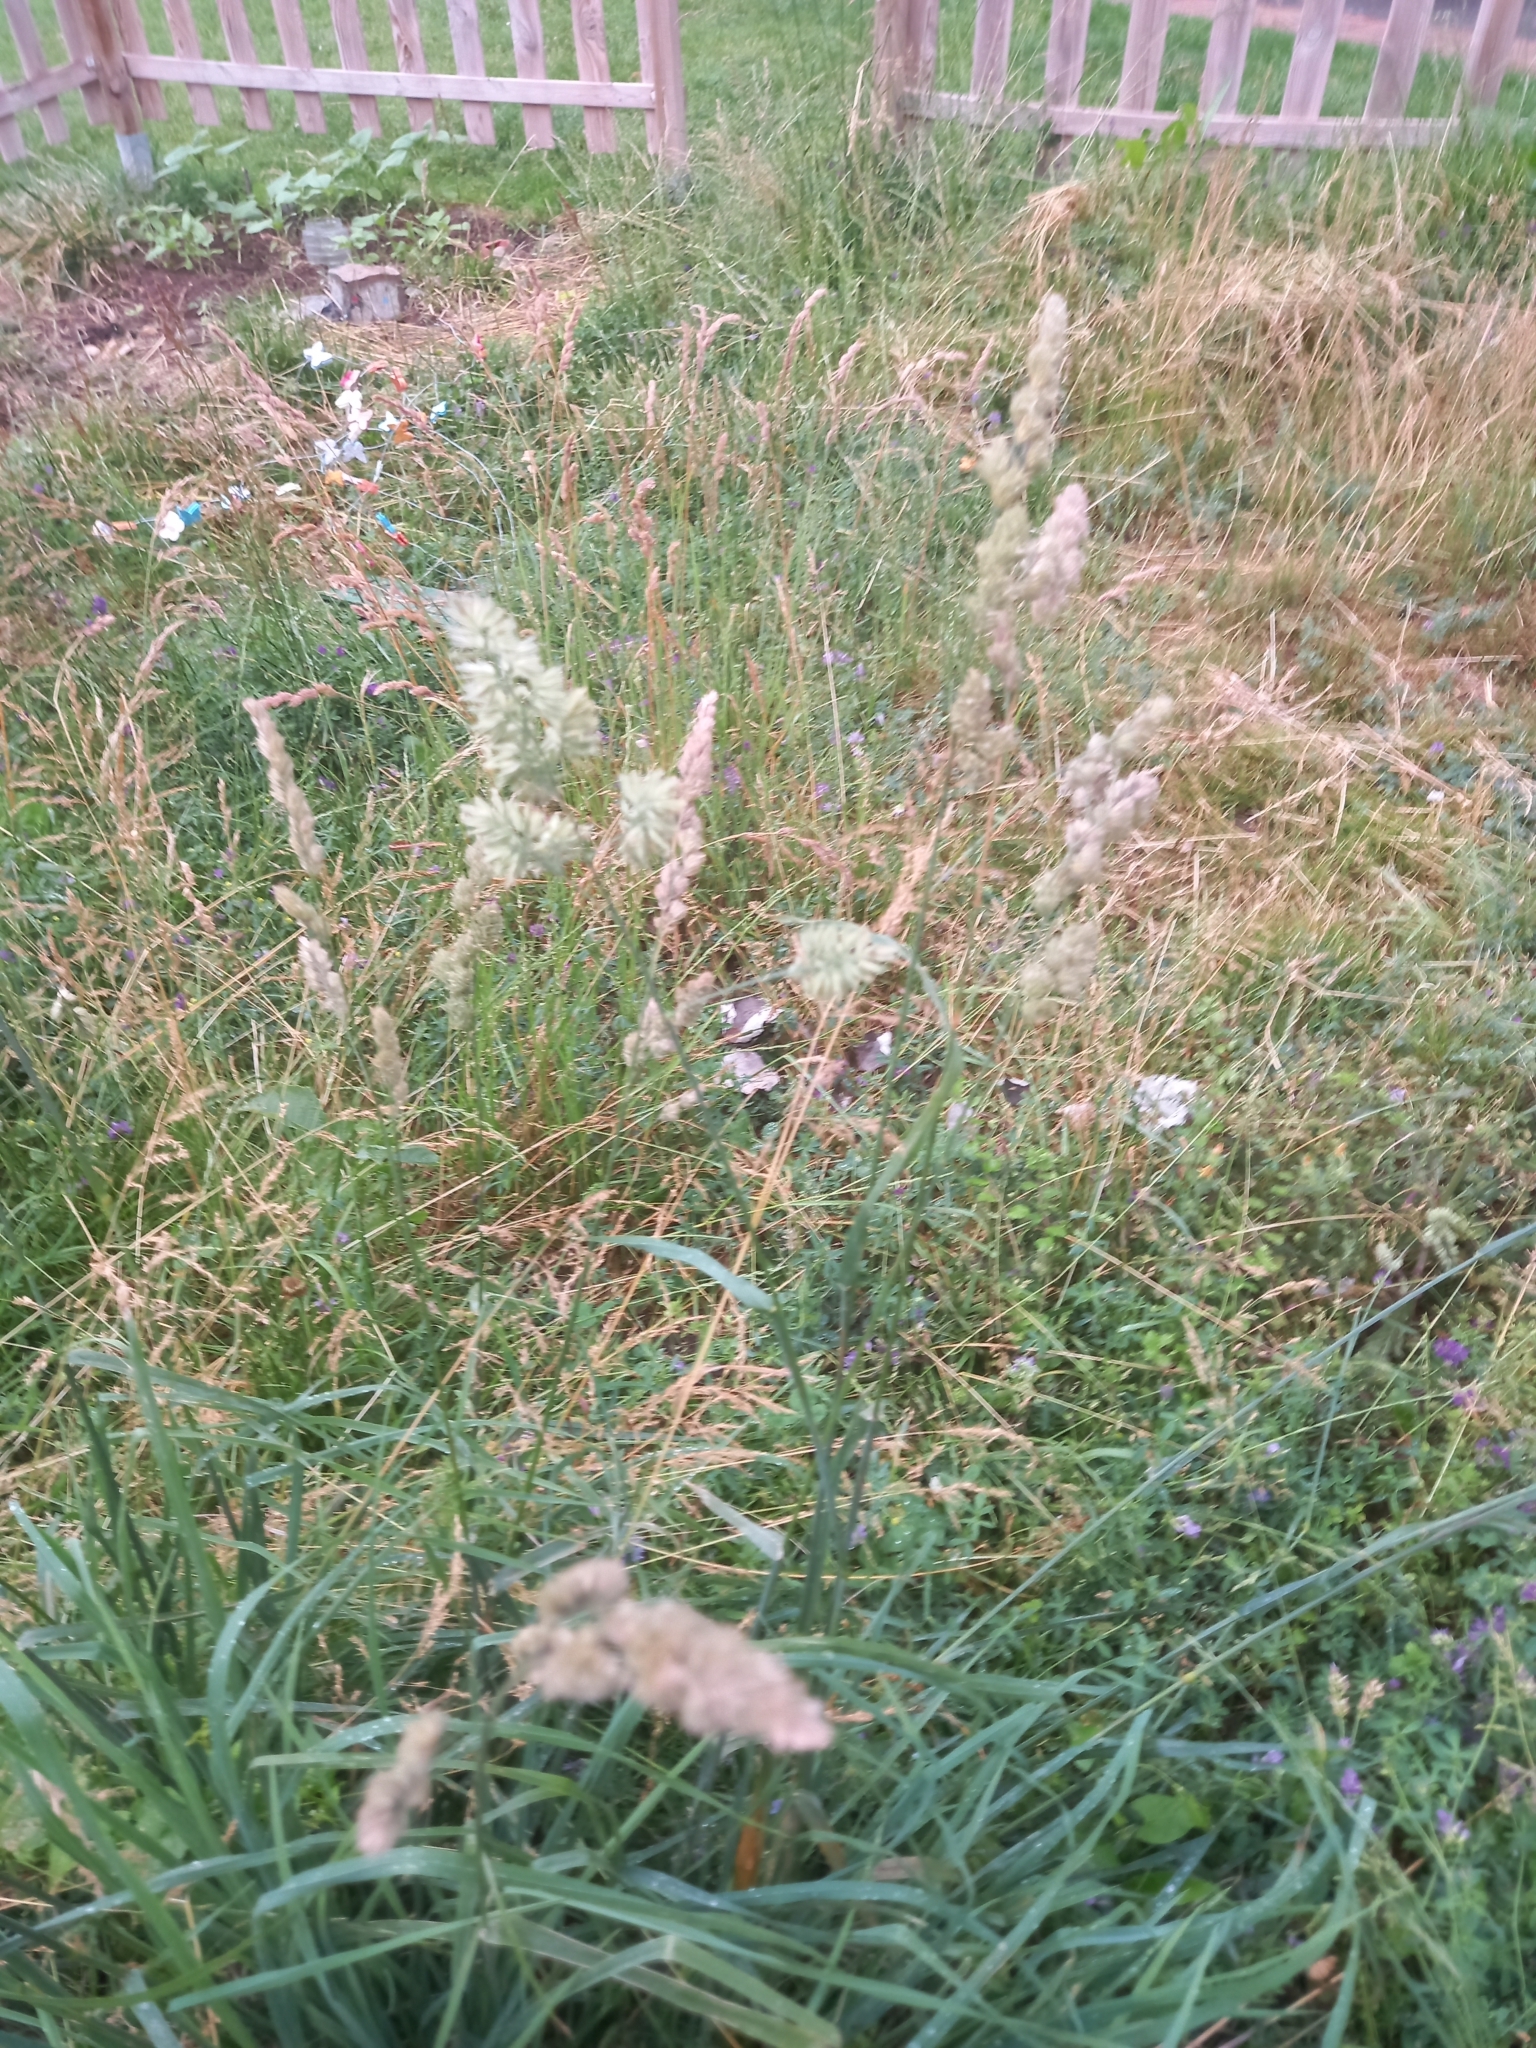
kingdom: Plantae
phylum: Tracheophyta
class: Liliopsida
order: Poales
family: Poaceae
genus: Dactylis
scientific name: Dactylis glomerata
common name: Orchardgrass
